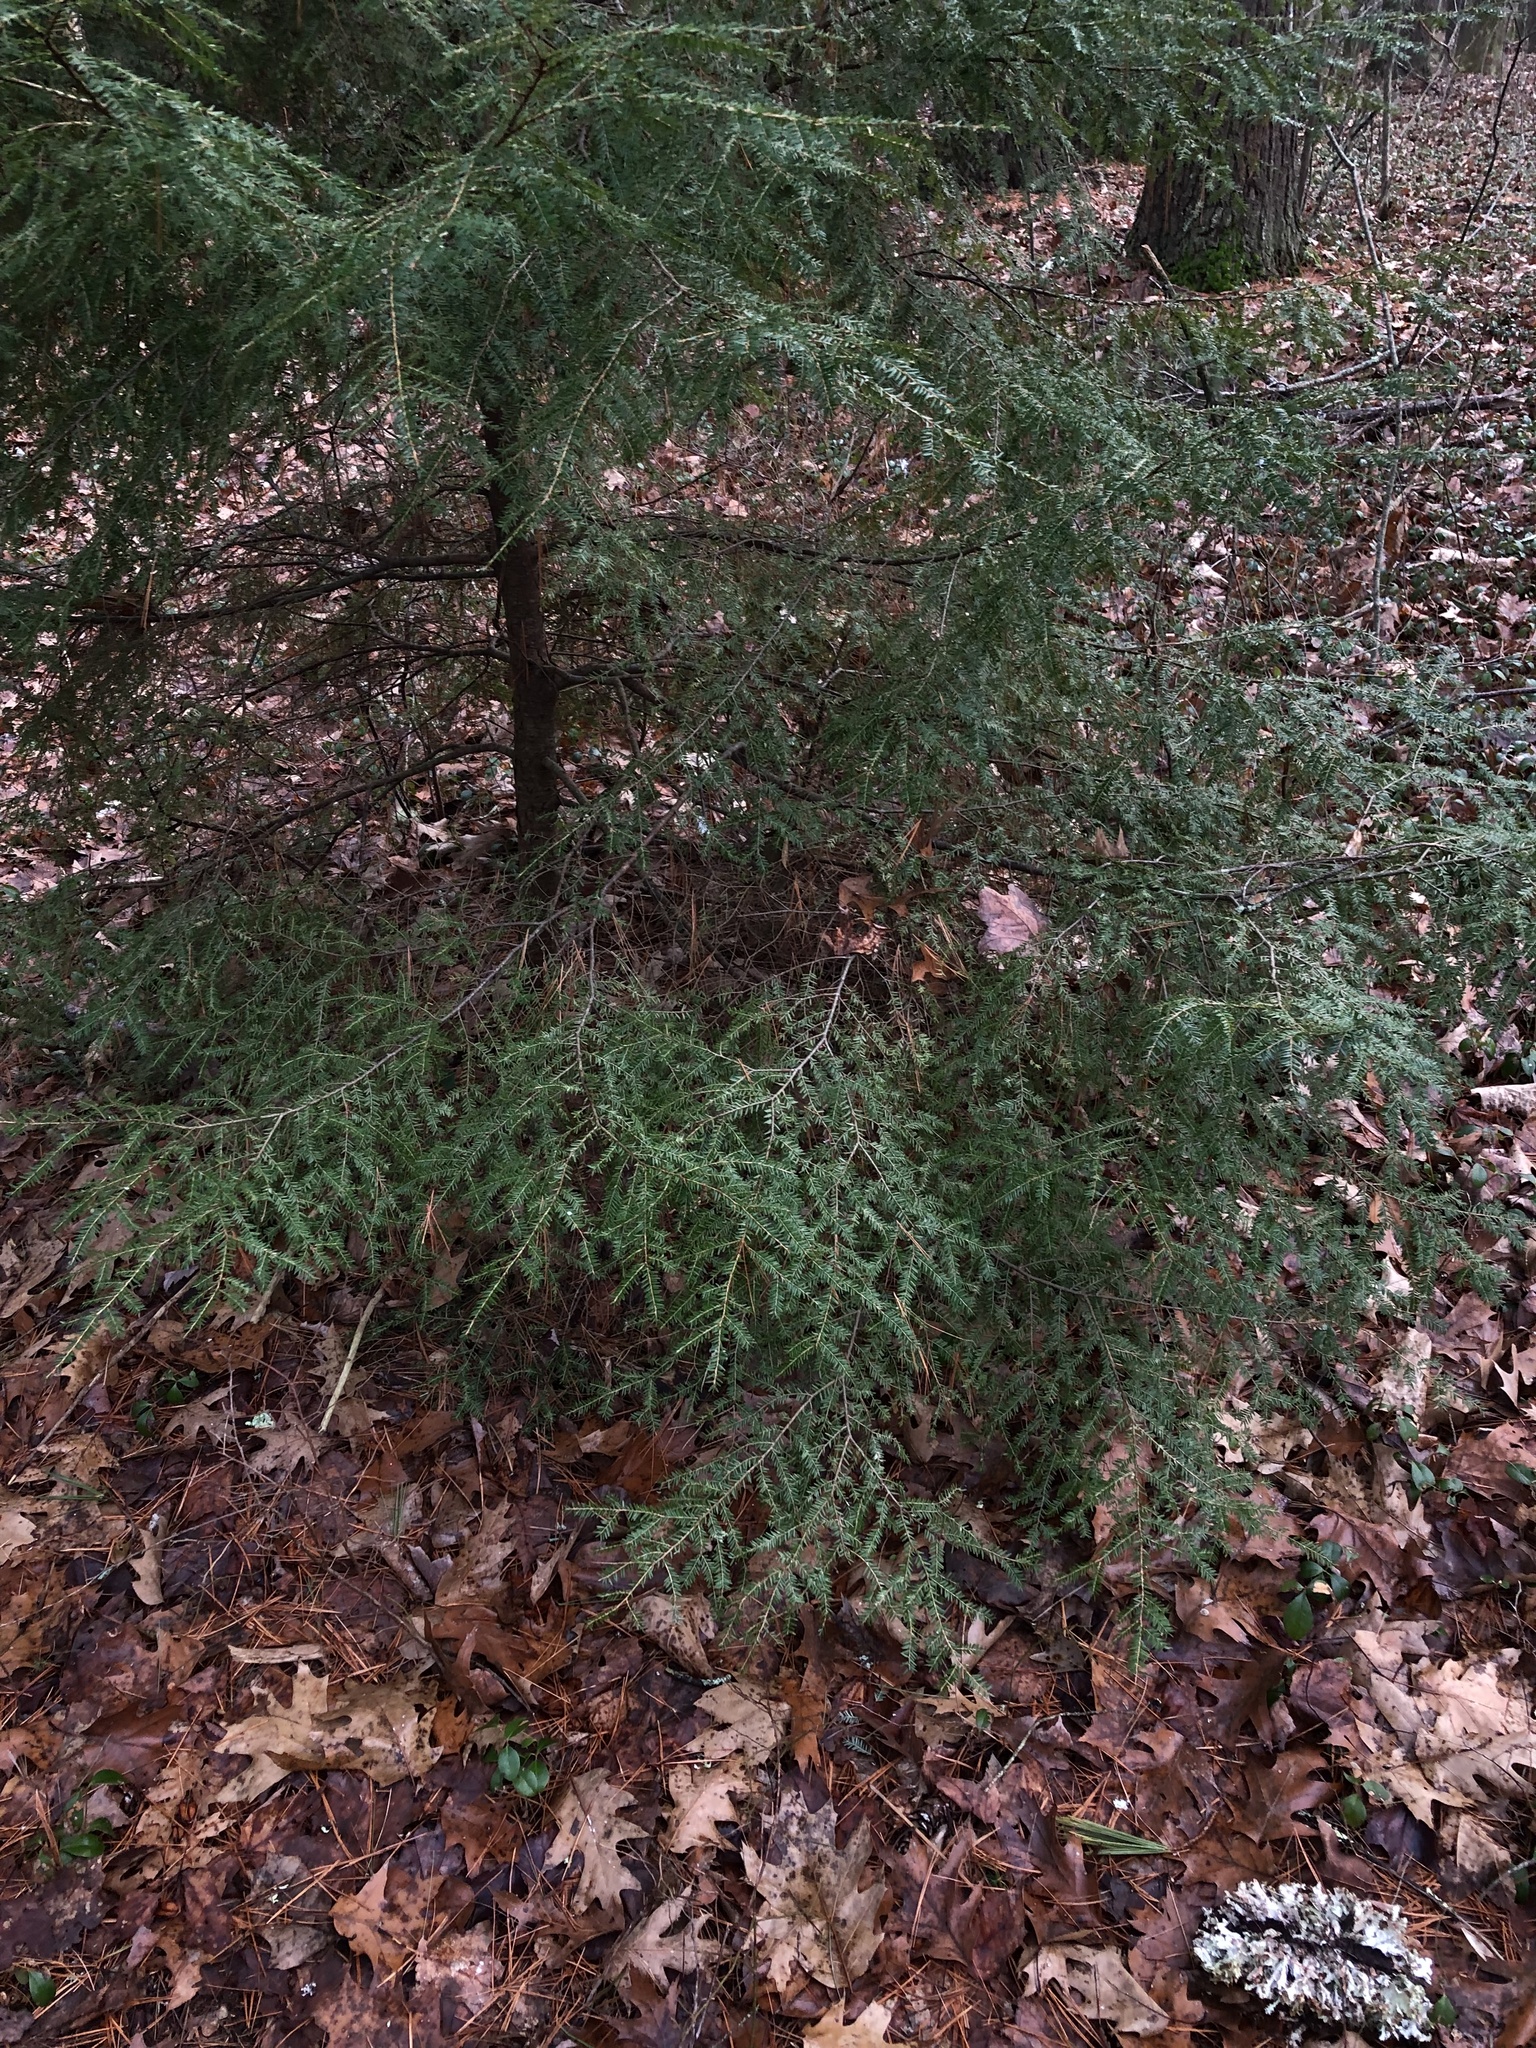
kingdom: Plantae
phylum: Tracheophyta
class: Pinopsida
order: Pinales
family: Pinaceae
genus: Tsuga
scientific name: Tsuga canadensis
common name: Eastern hemlock
